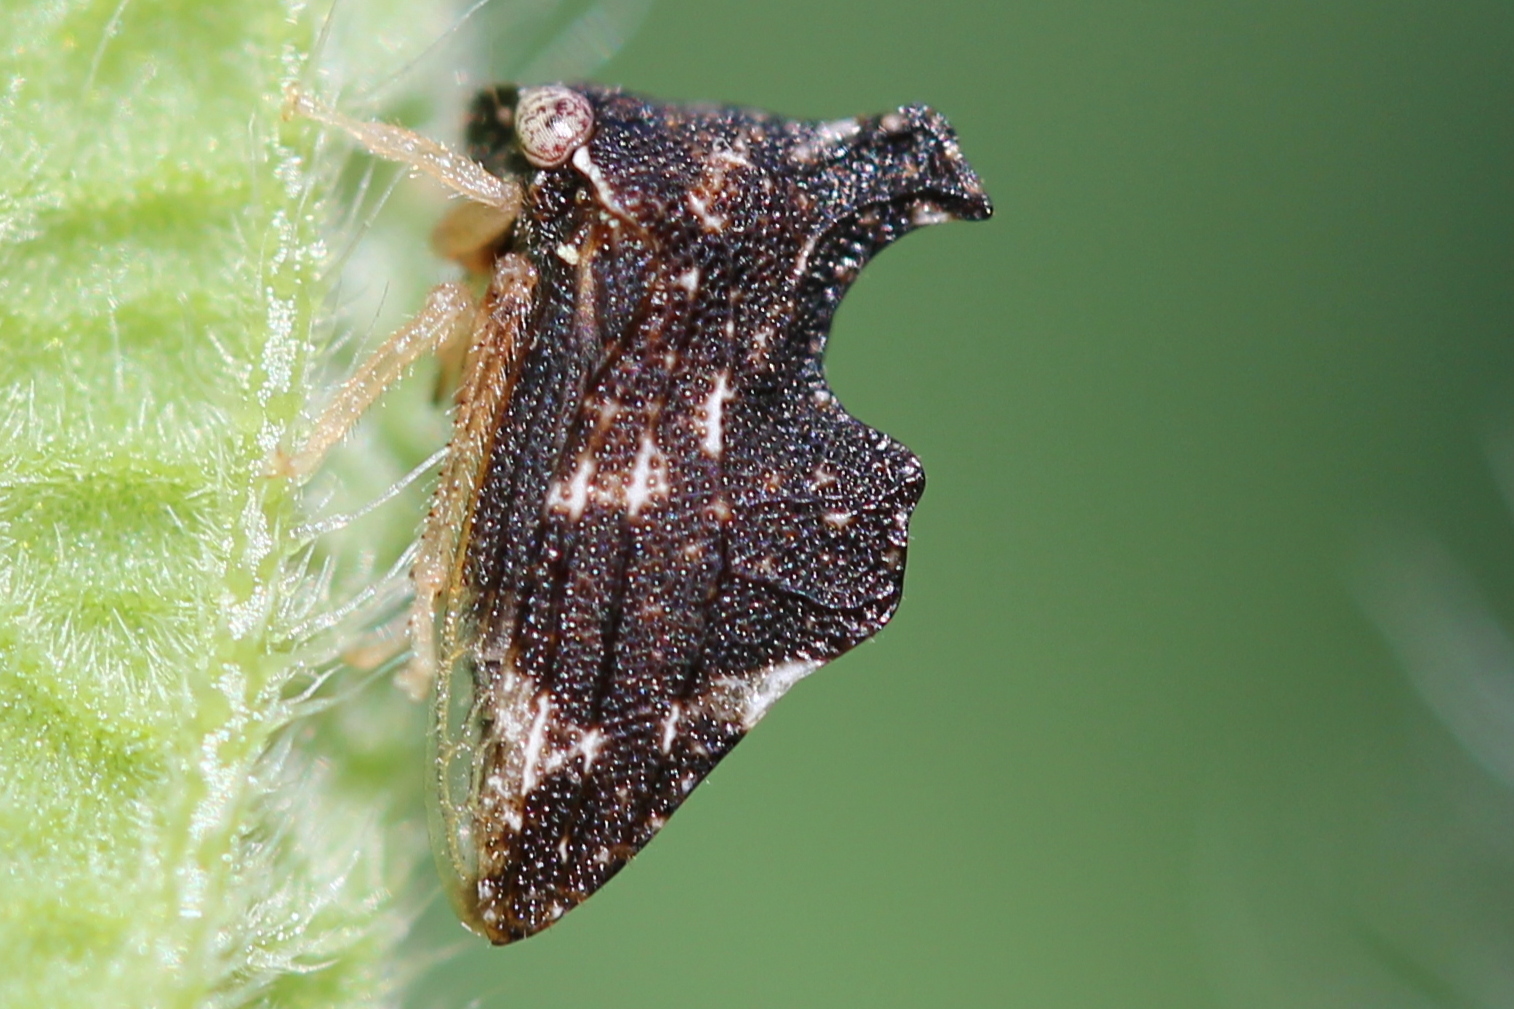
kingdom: Animalia
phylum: Arthropoda
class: Insecta
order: Hemiptera
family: Membracidae
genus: Entylia
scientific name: Entylia carinata
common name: Keeled treehopper
